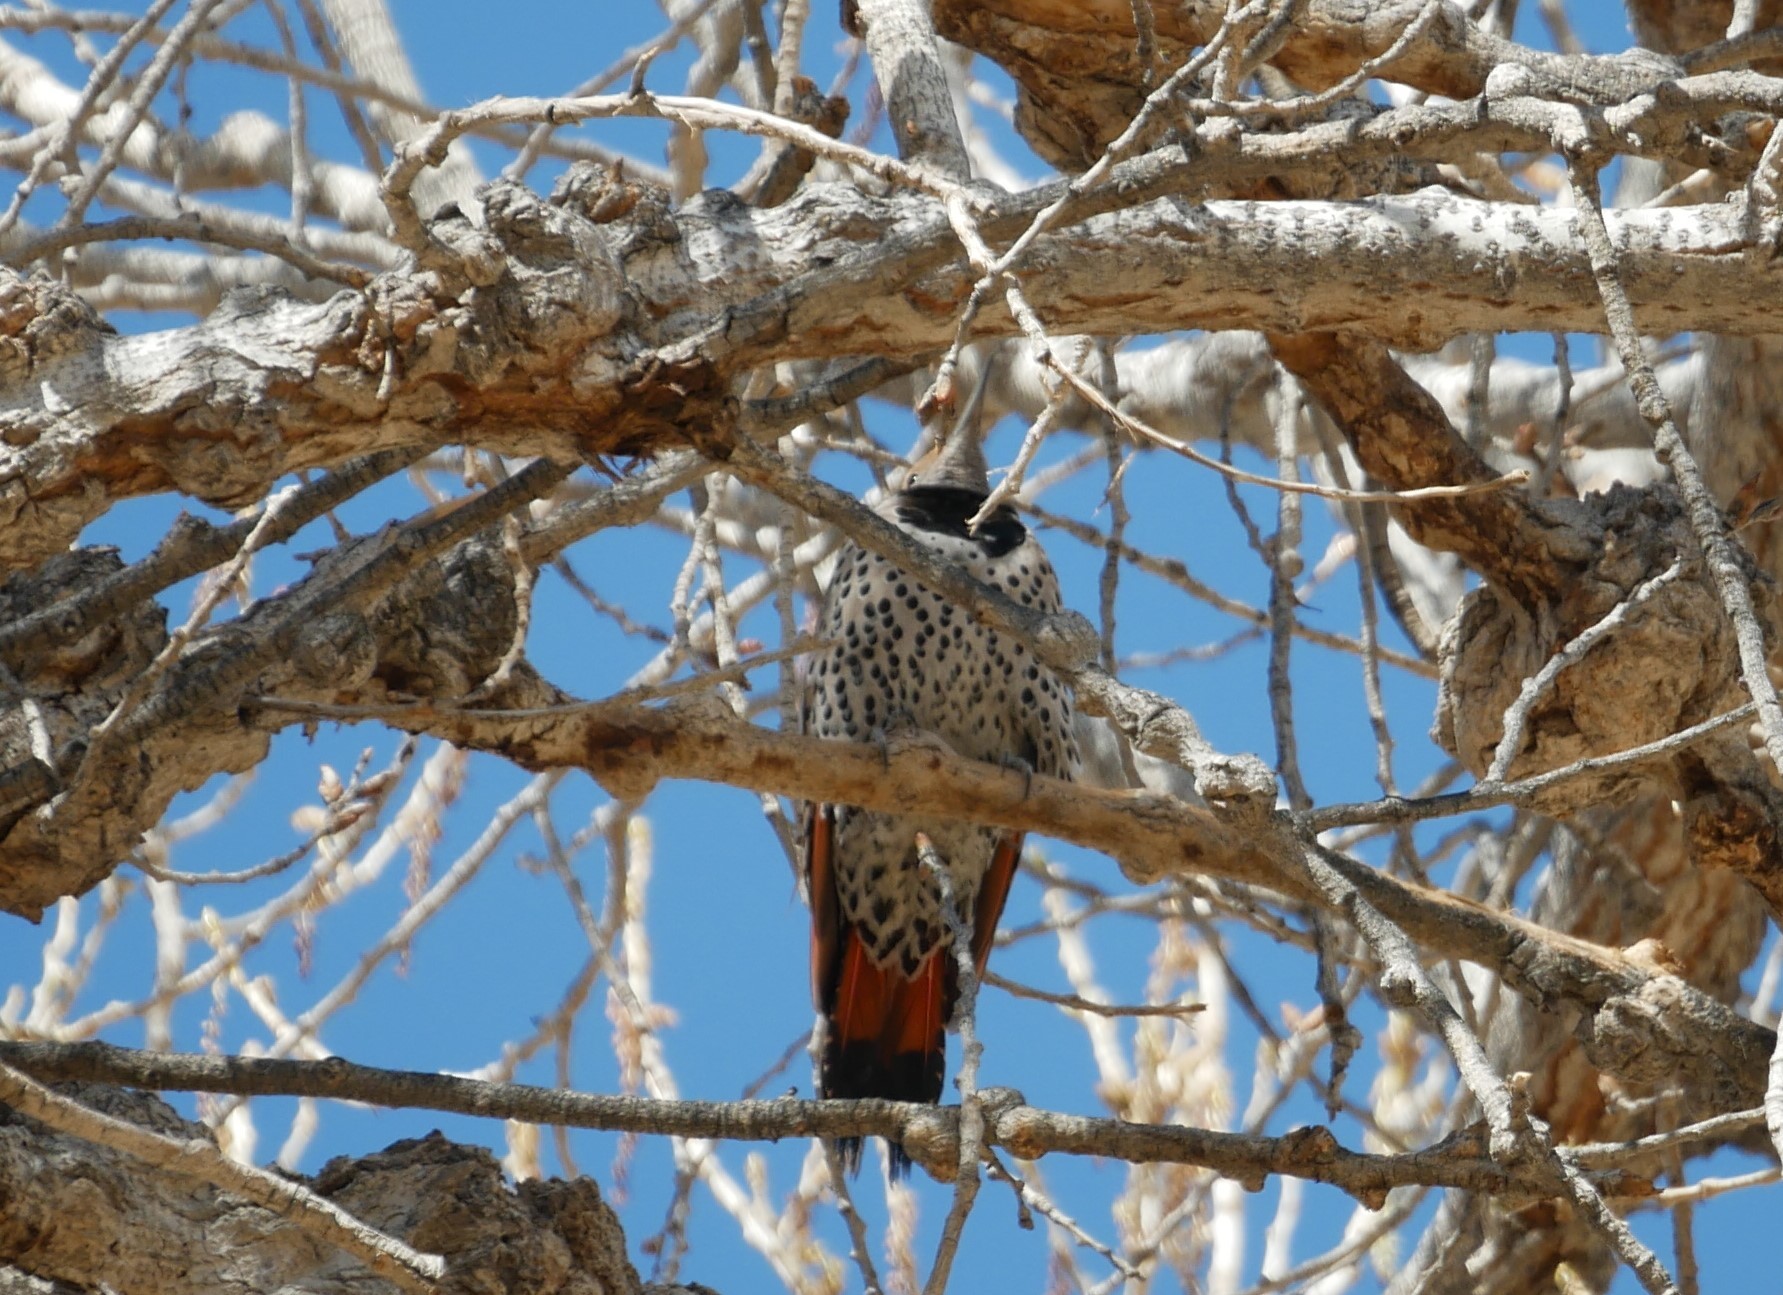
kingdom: Animalia
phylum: Chordata
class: Aves
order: Piciformes
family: Picidae
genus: Colaptes
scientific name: Colaptes auratus
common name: Northern flicker
